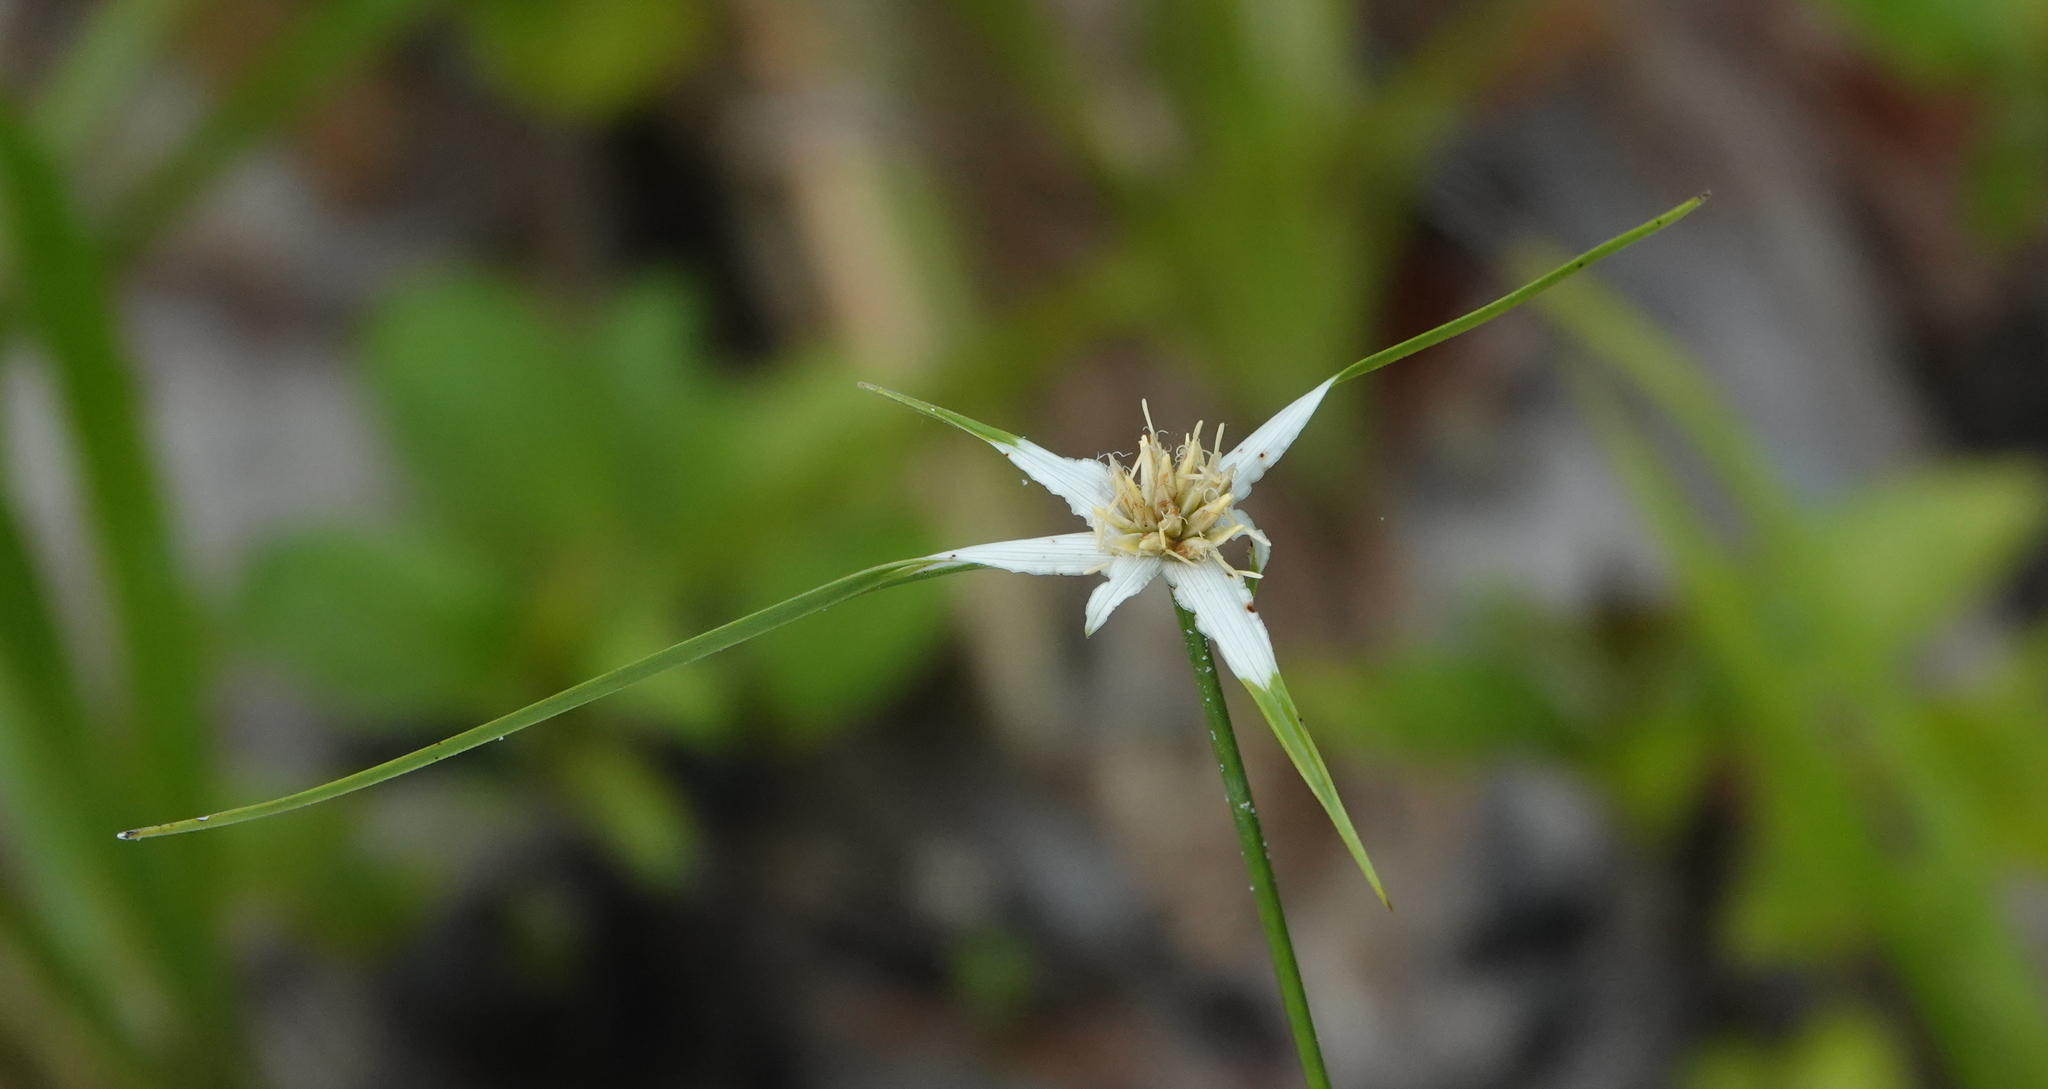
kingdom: Plantae
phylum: Tracheophyta
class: Liliopsida
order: Poales
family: Cyperaceae
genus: Rhynchospora
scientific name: Rhynchospora colorata
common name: Star sedge
